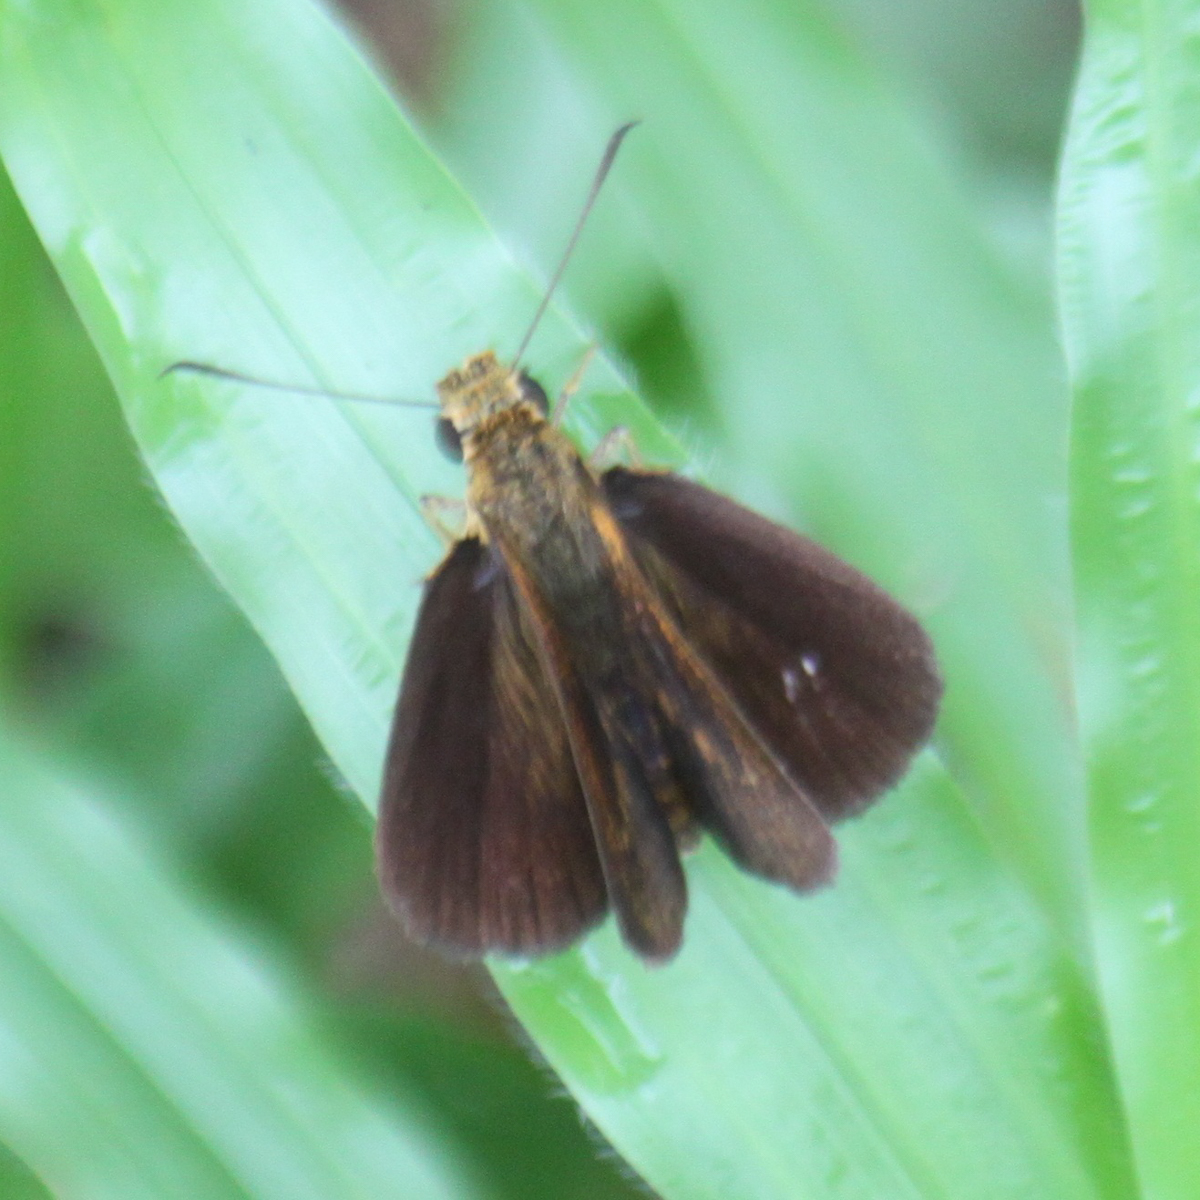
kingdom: Animalia
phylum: Arthropoda
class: Insecta
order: Lepidoptera
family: Hesperiidae
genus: Iambrix
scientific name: Iambrix salsala
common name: Chestnut bob
